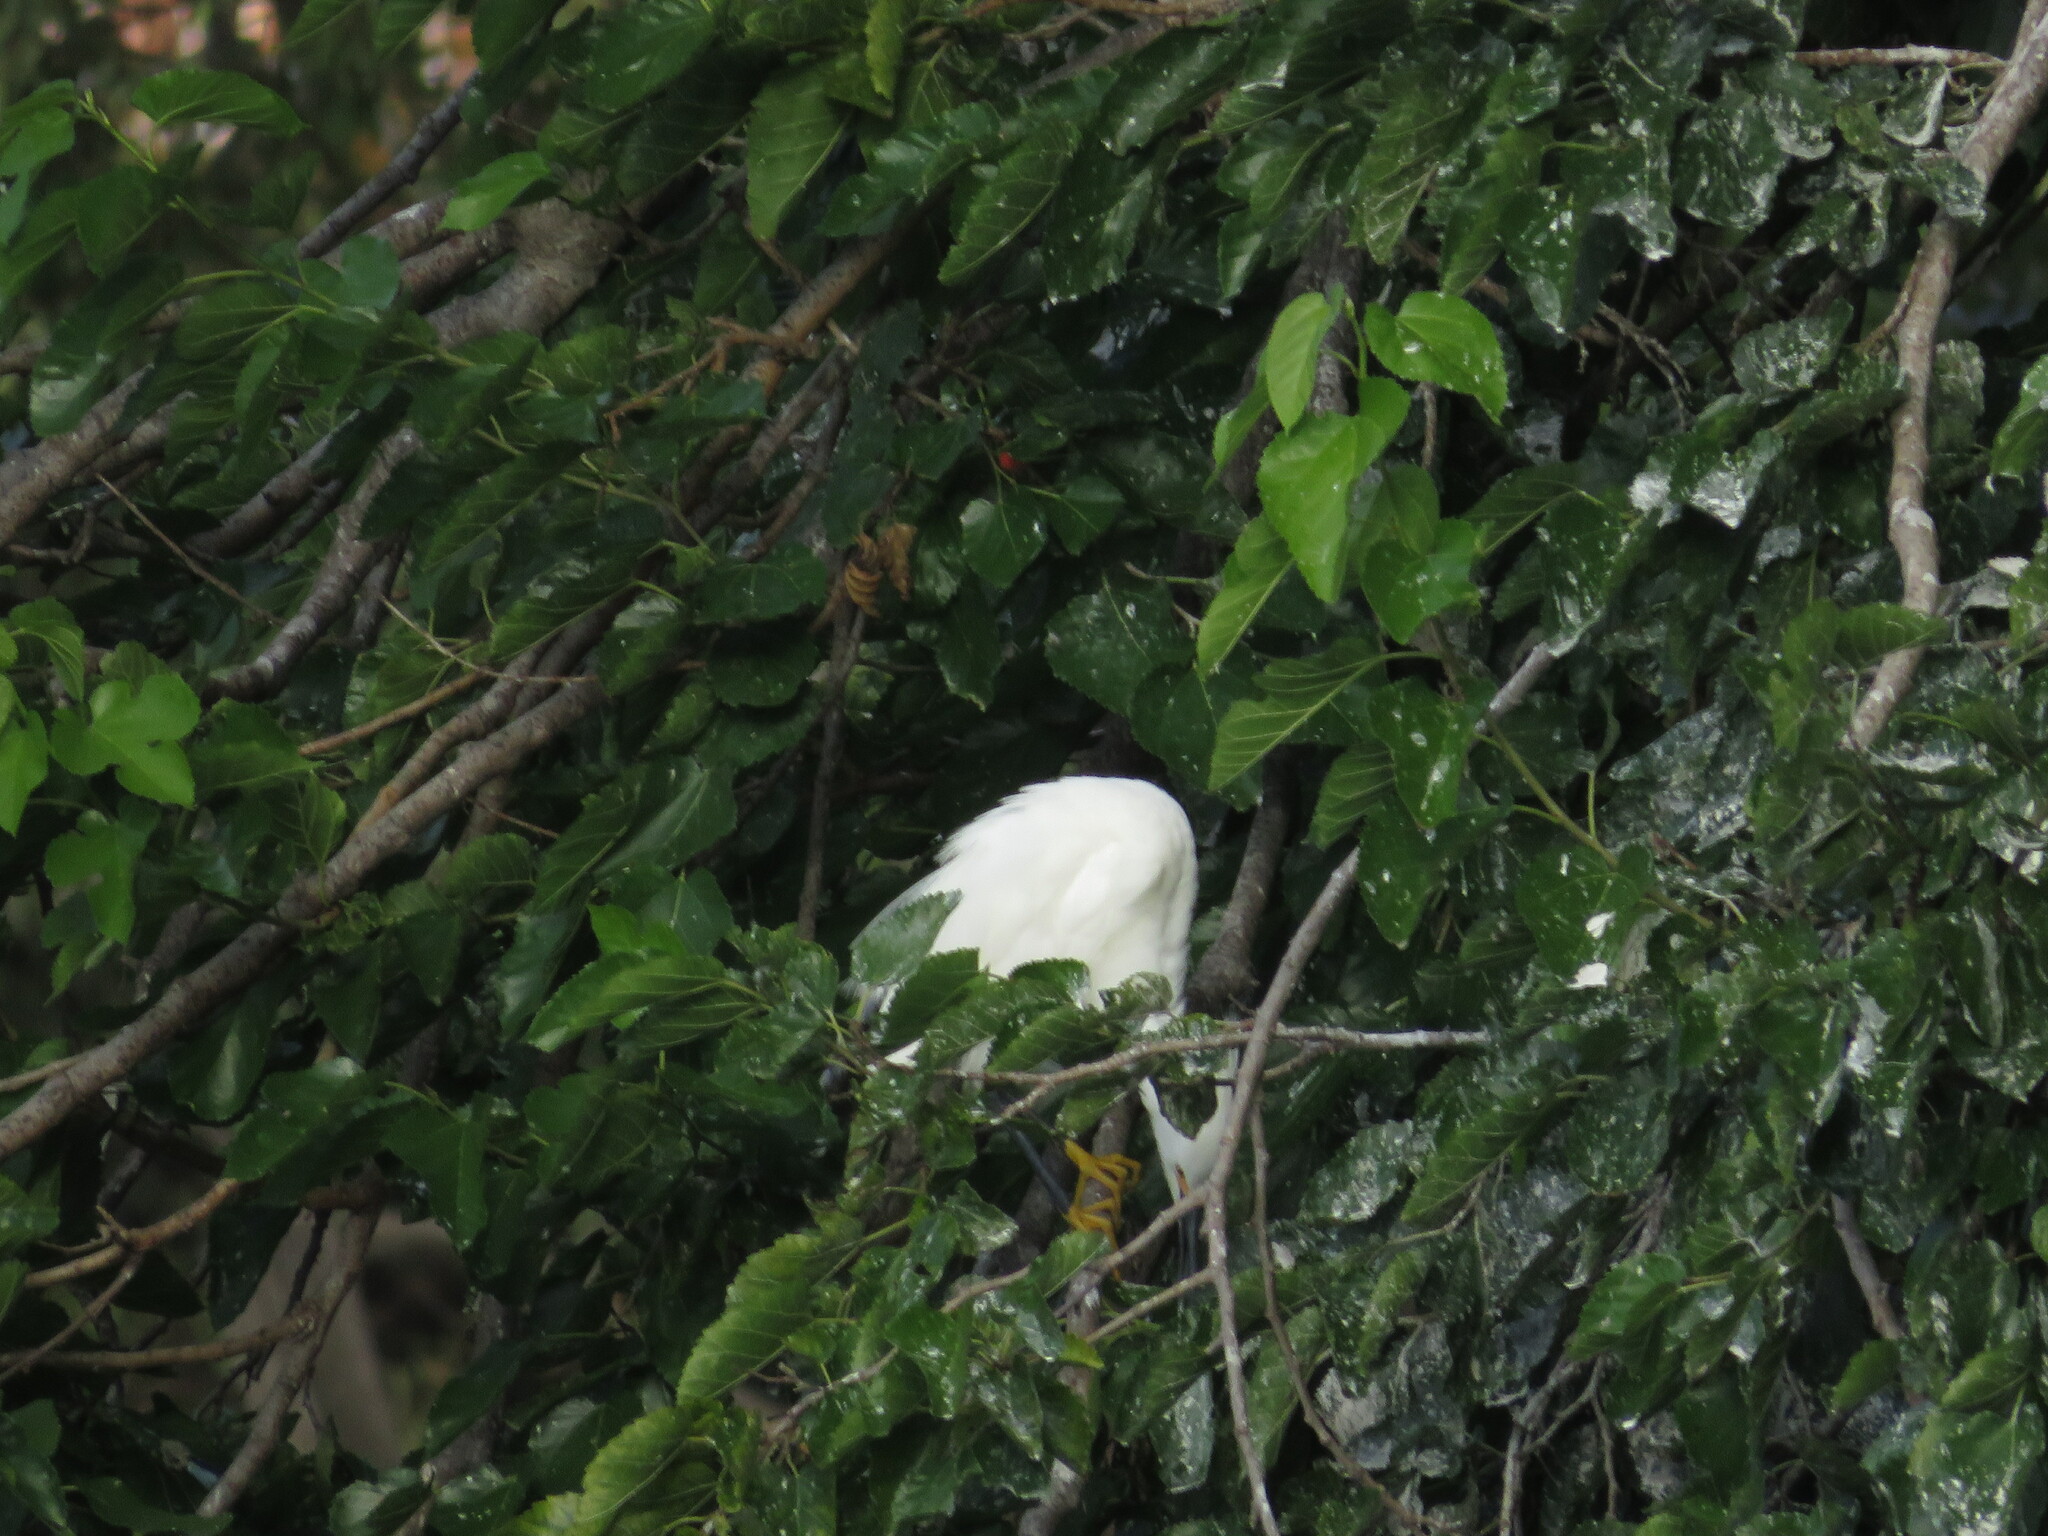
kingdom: Animalia
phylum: Chordata
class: Aves
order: Pelecaniformes
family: Ardeidae
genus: Egretta
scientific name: Egretta thula
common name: Snowy egret
